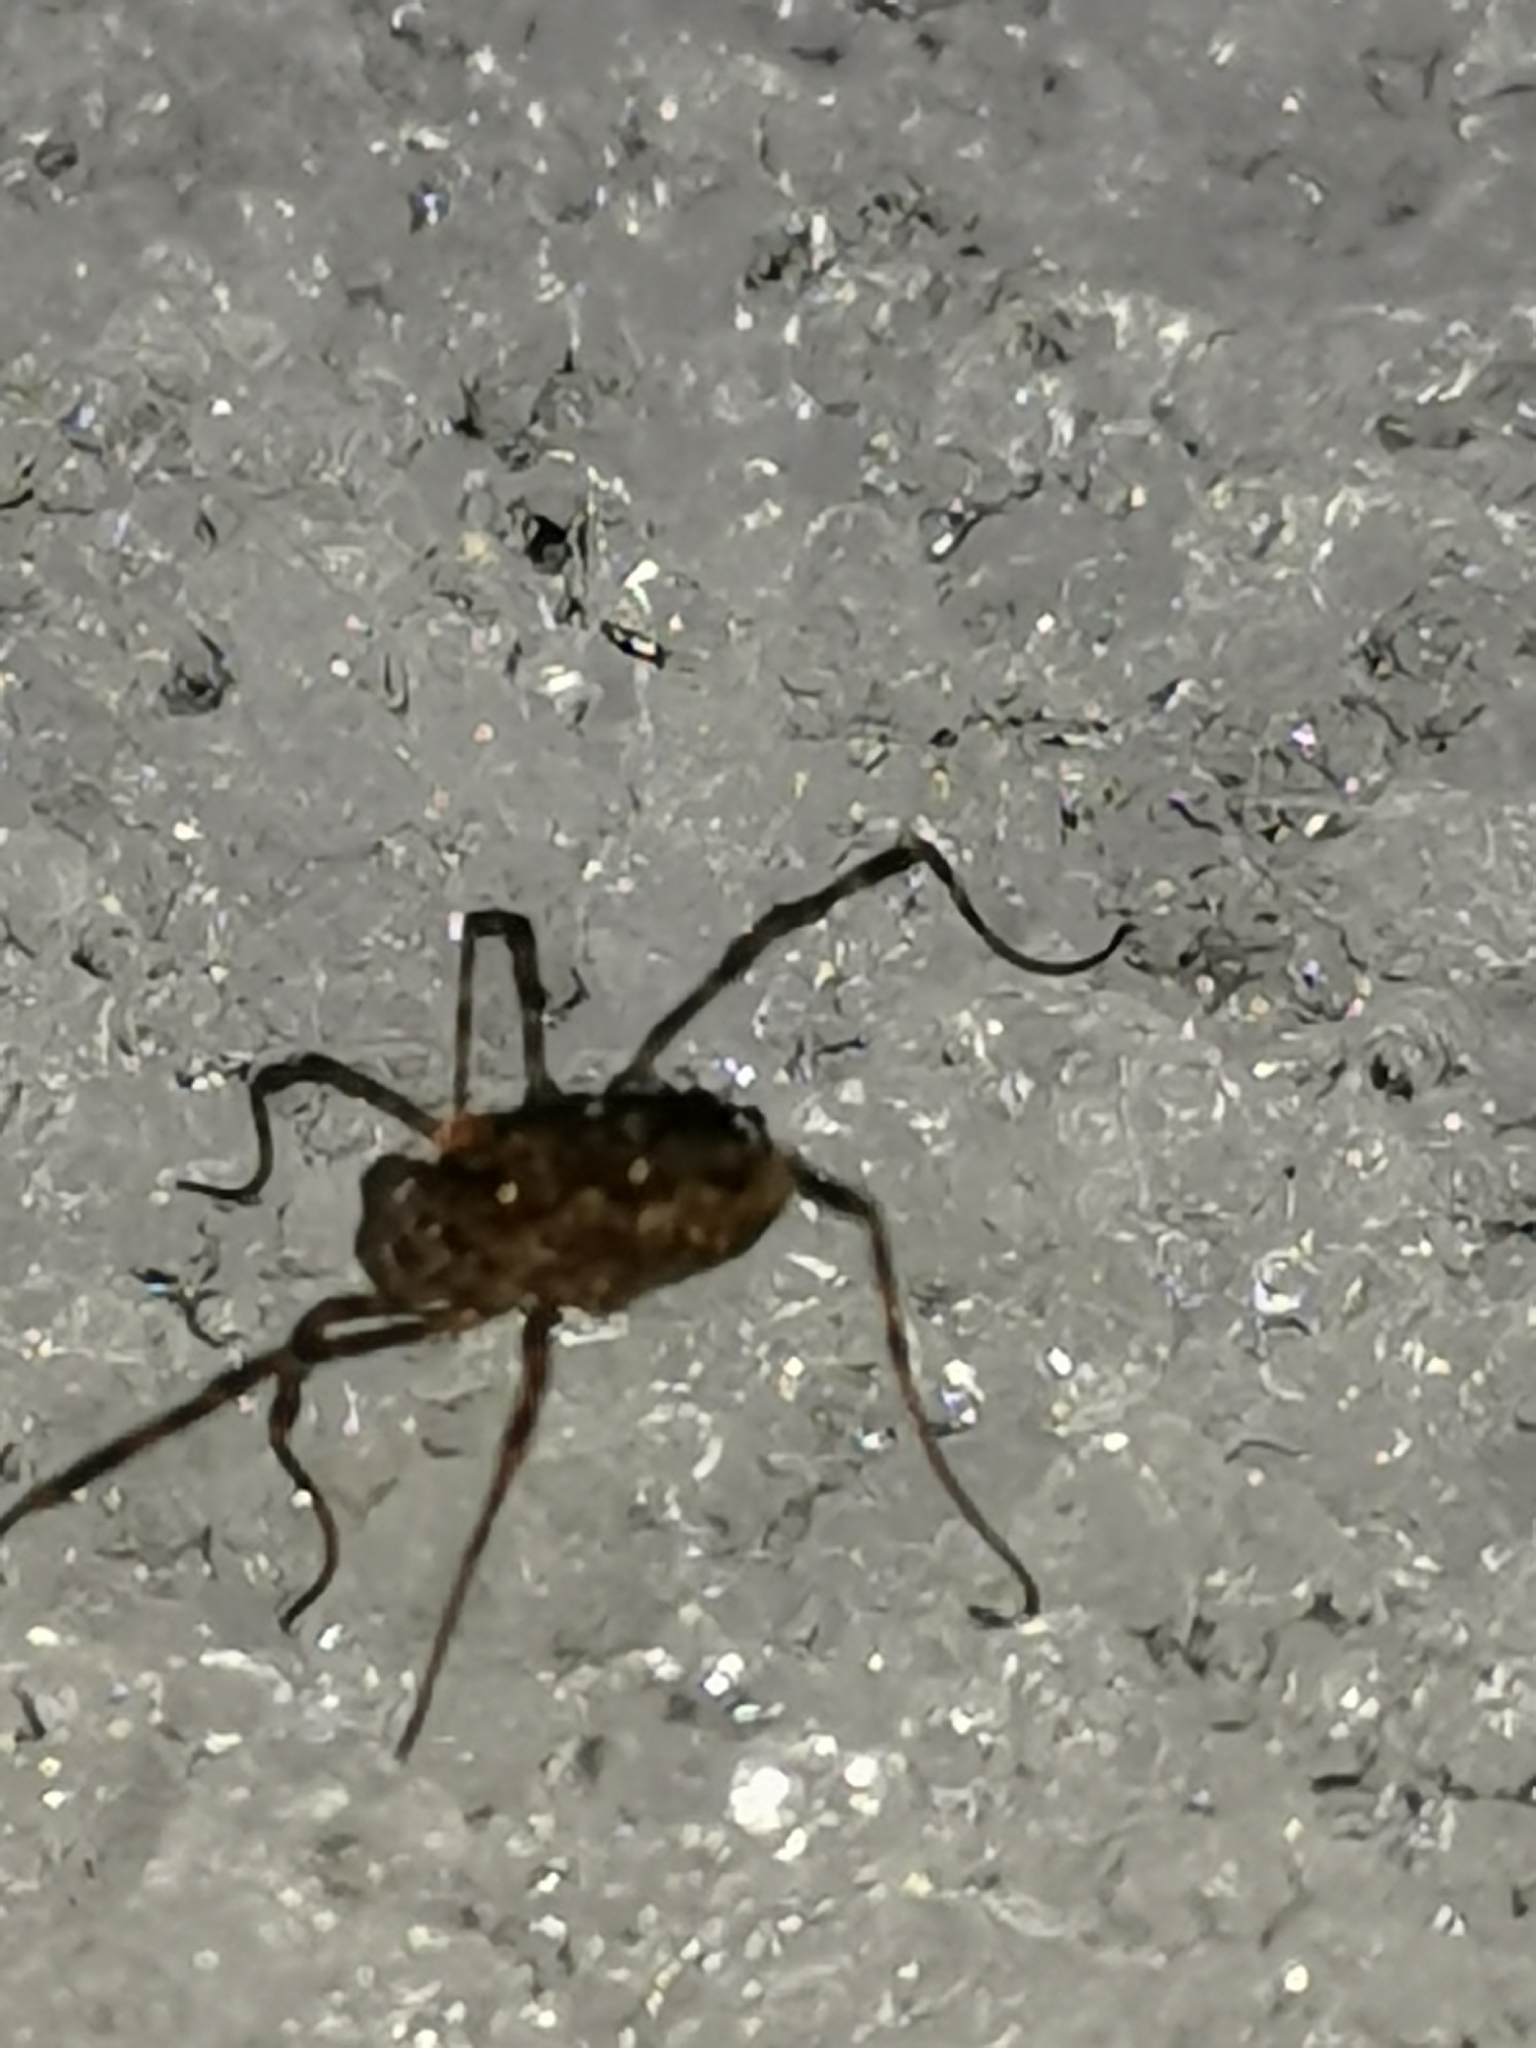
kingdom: Animalia
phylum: Arthropoda
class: Arachnida
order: Opiliones
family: Phalangiidae
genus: Rilaena
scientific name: Rilaena triangularis
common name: Spring harvestman
